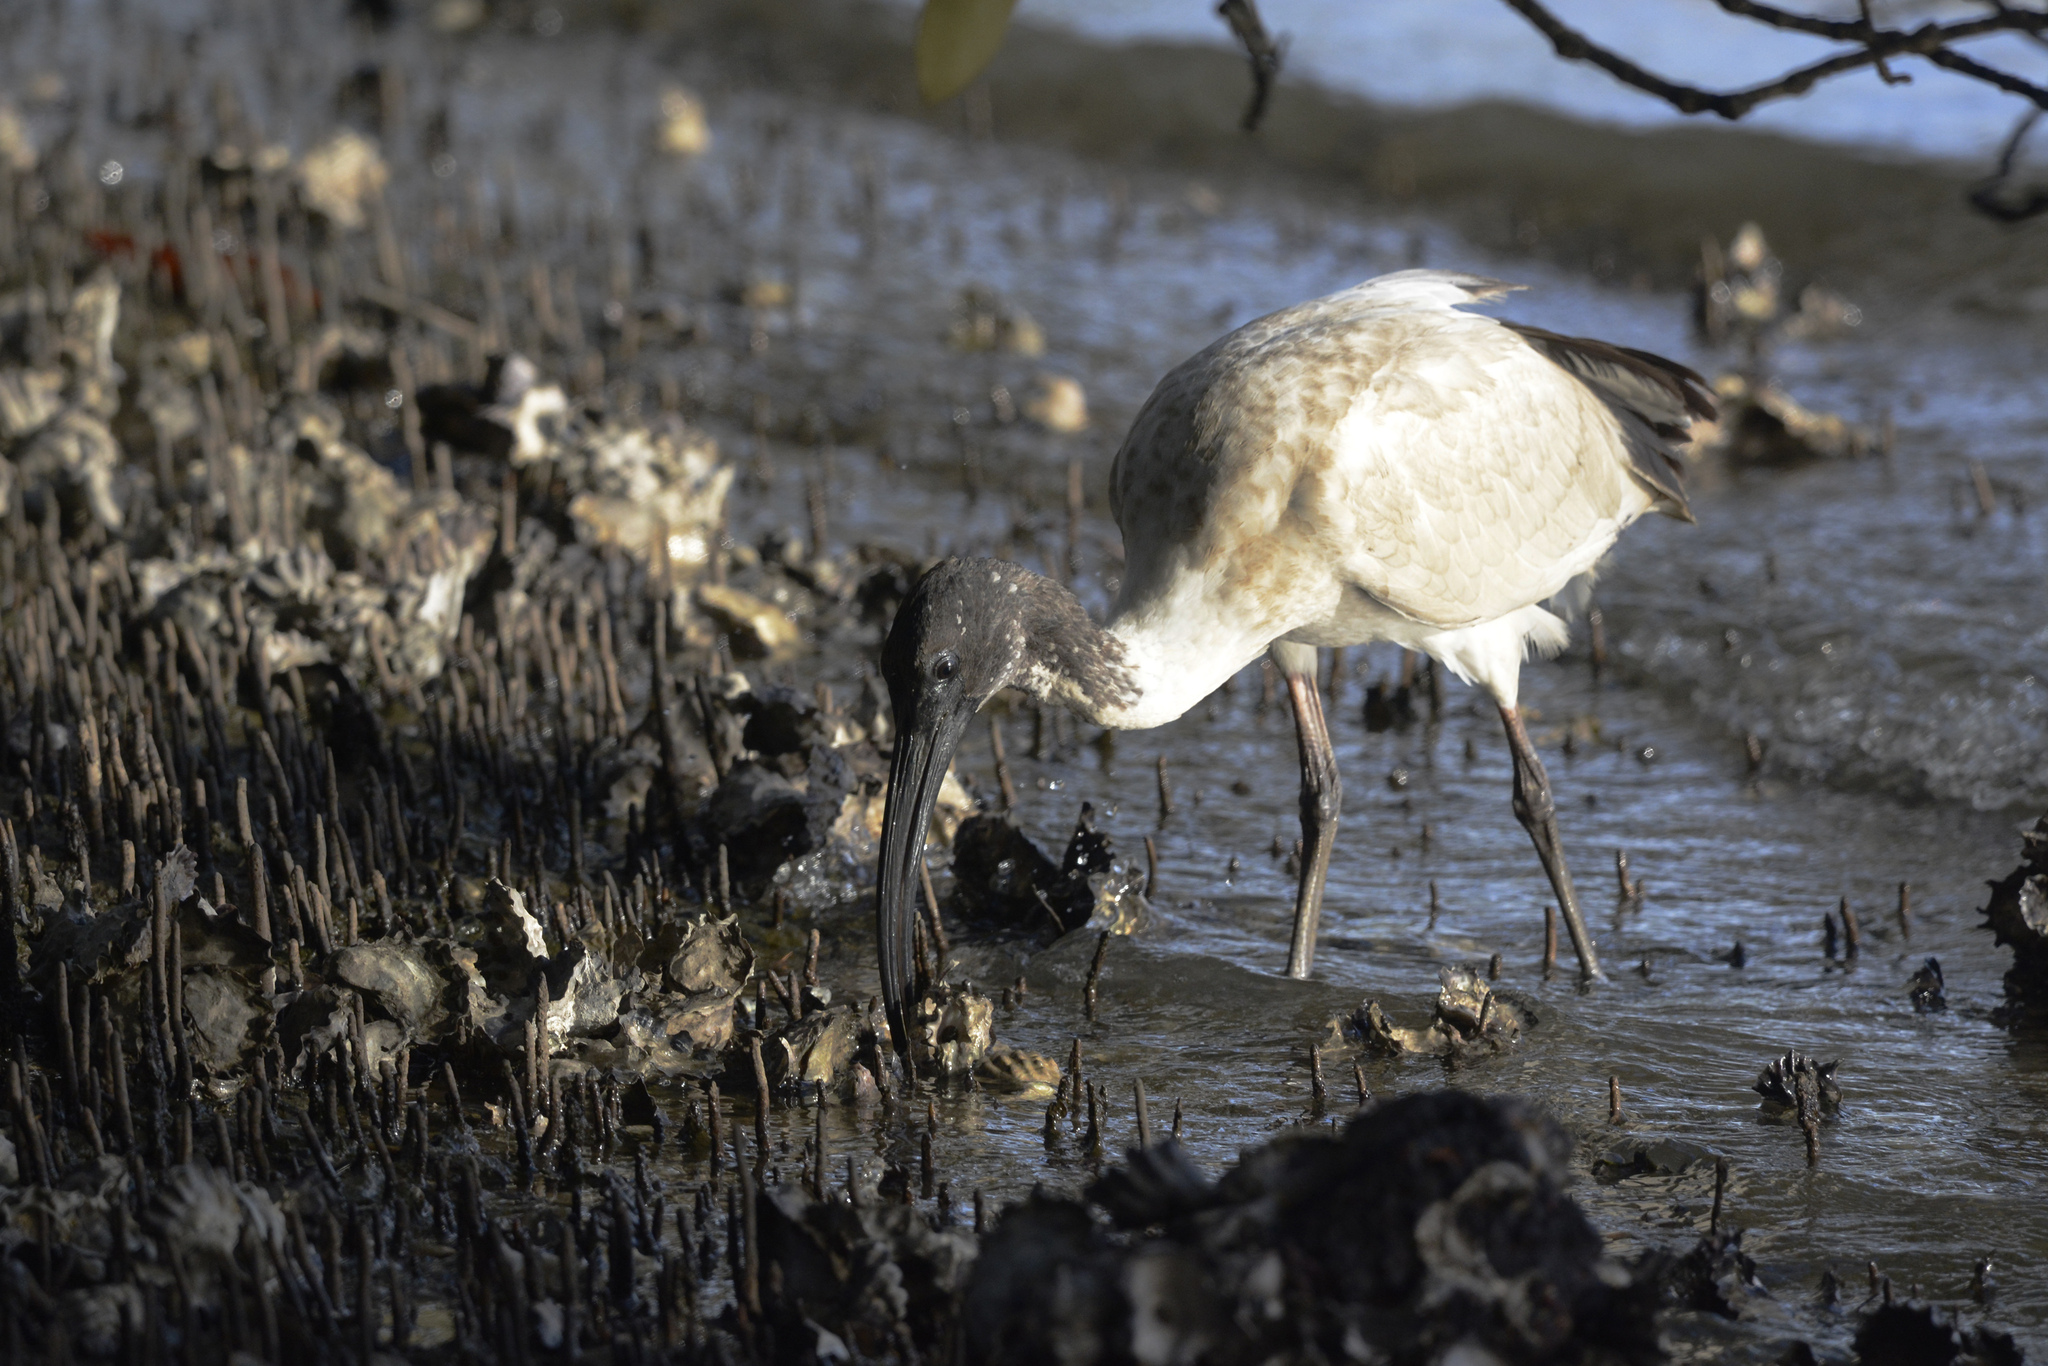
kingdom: Animalia
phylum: Chordata
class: Aves
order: Pelecaniformes
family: Threskiornithidae
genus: Threskiornis
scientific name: Threskiornis molucca
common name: Australian white ibis
